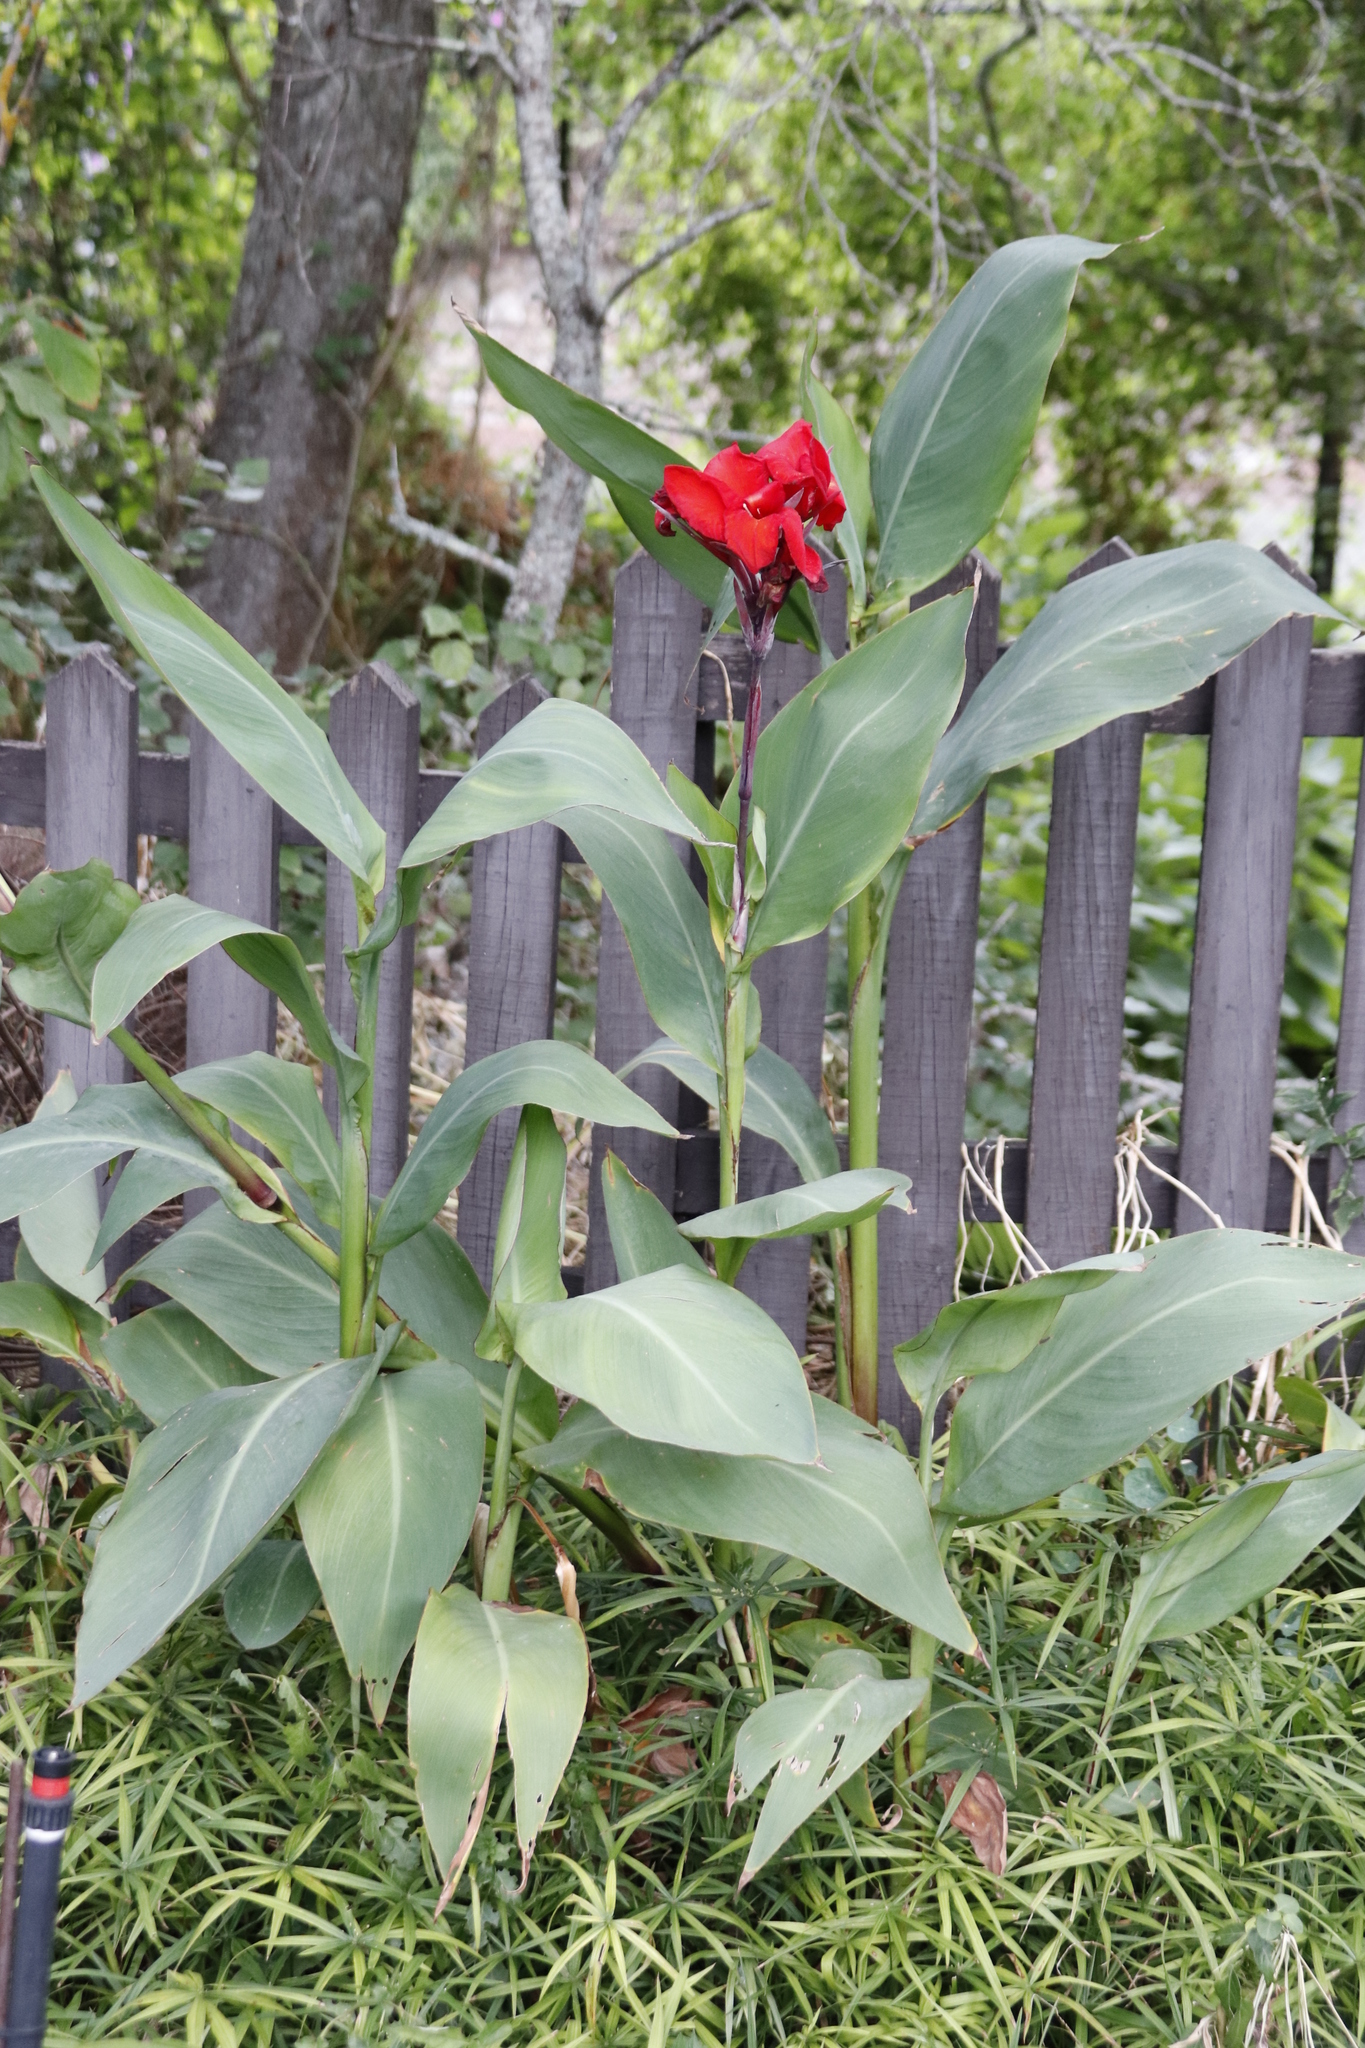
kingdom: Plantae
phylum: Tracheophyta
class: Liliopsida
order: Zingiberales
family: Cannaceae
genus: Canna
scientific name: Canna hybrida
